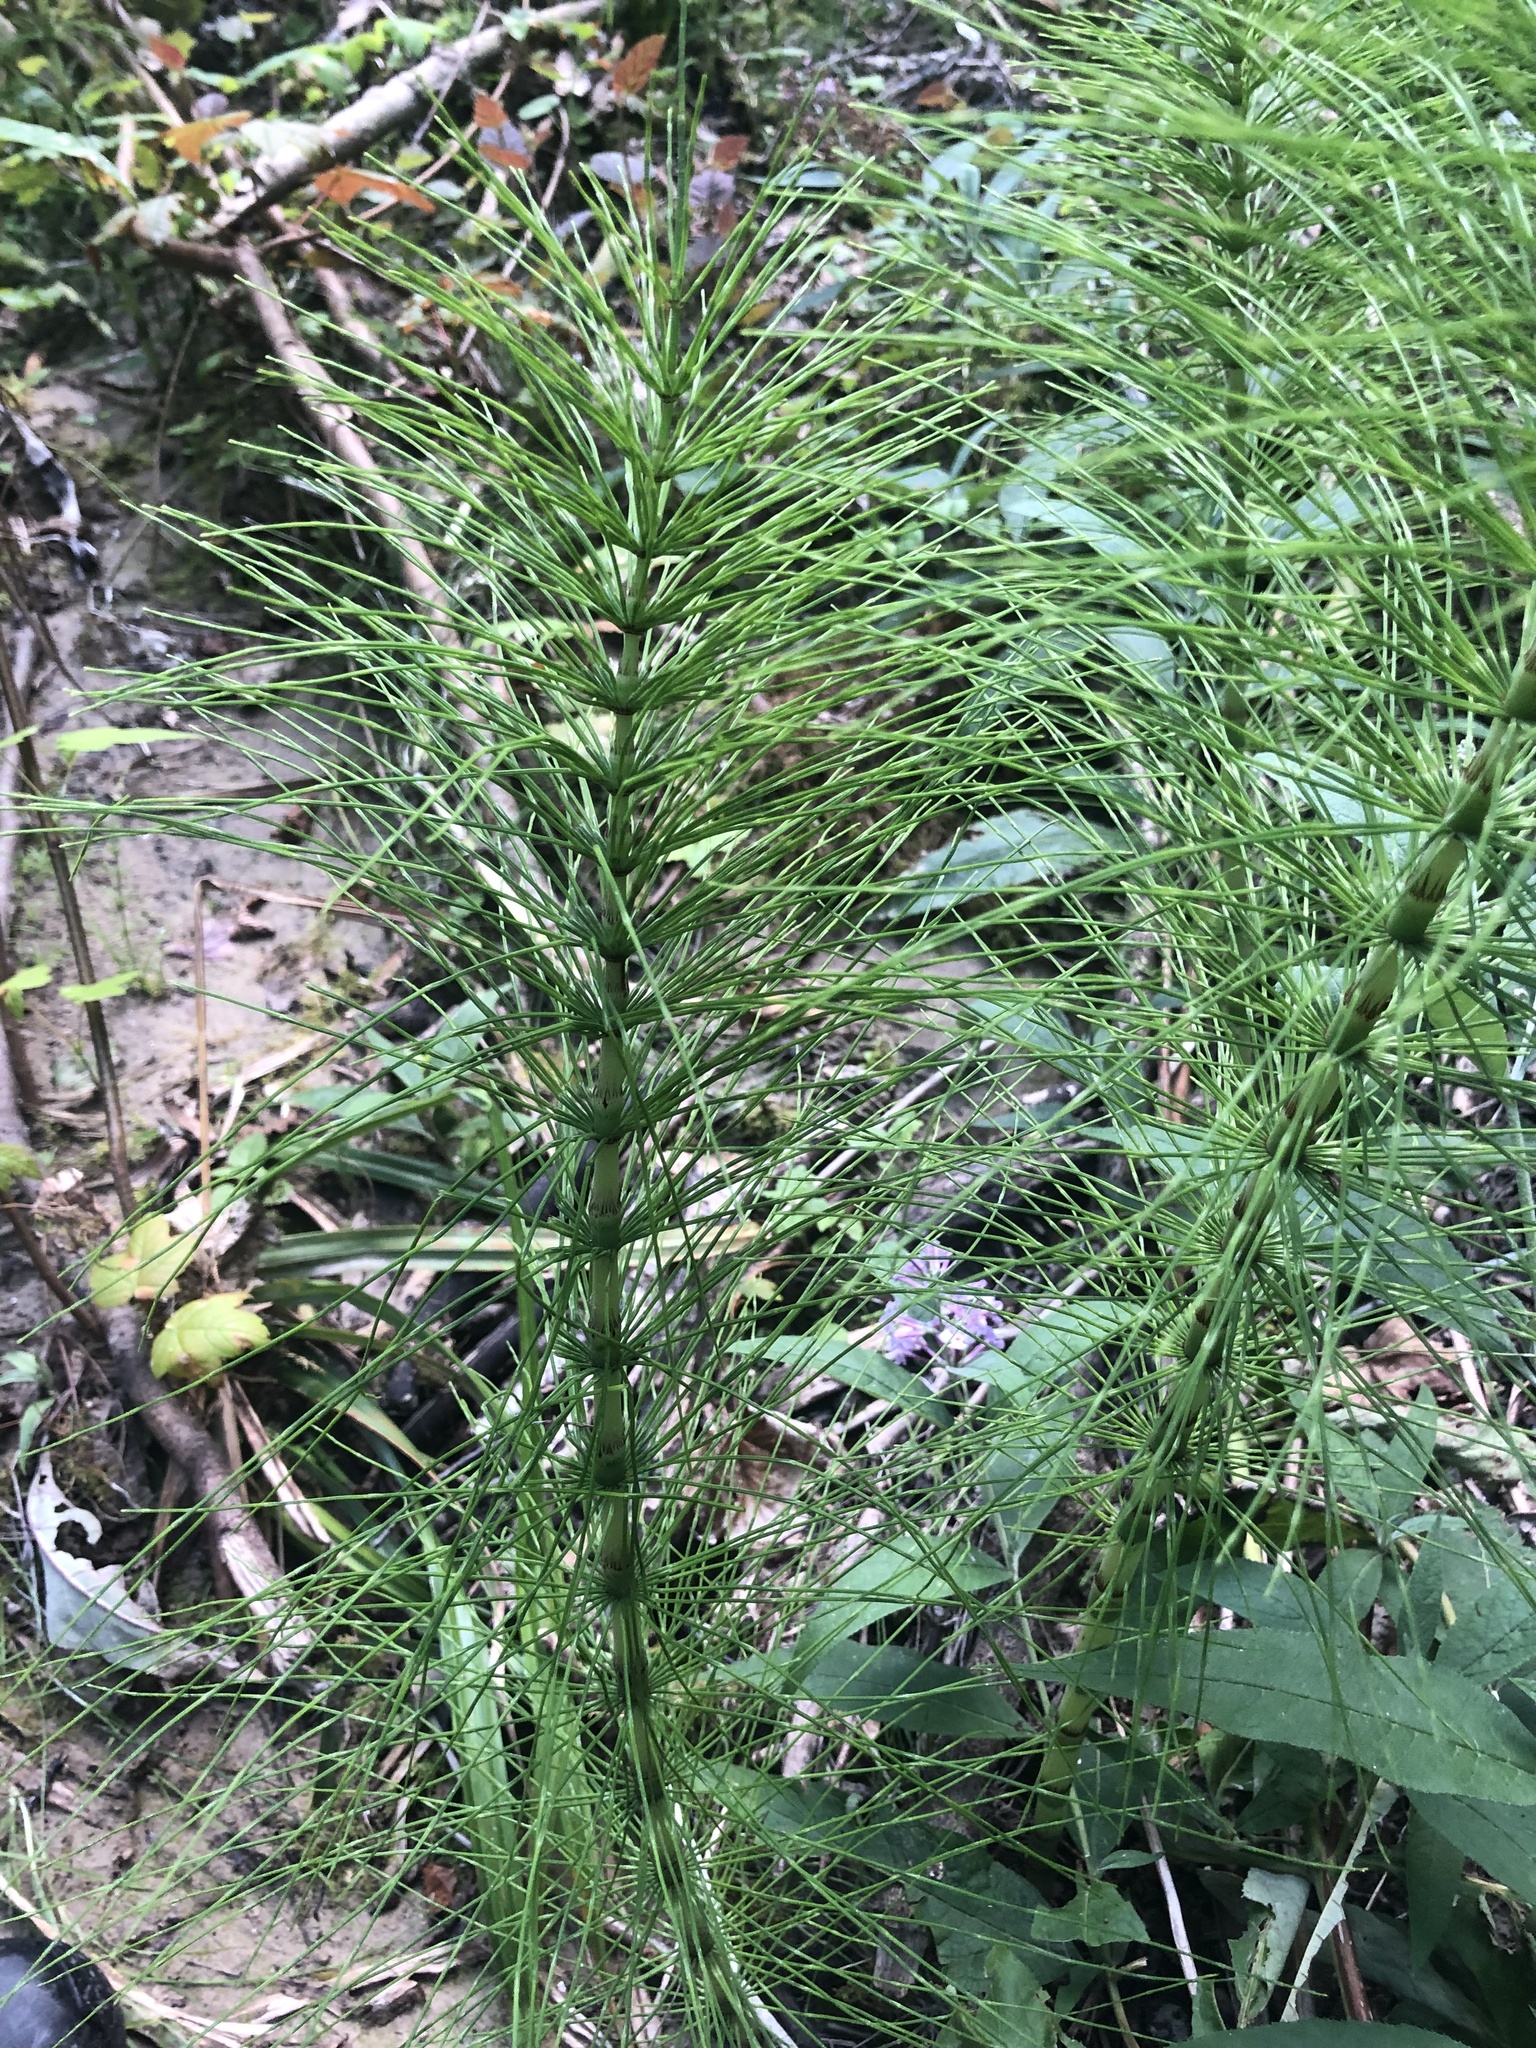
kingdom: Plantae
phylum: Tracheophyta
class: Polypodiopsida
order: Equisetales
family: Equisetaceae
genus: Equisetum
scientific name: Equisetum telmateia
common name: Great horsetail
